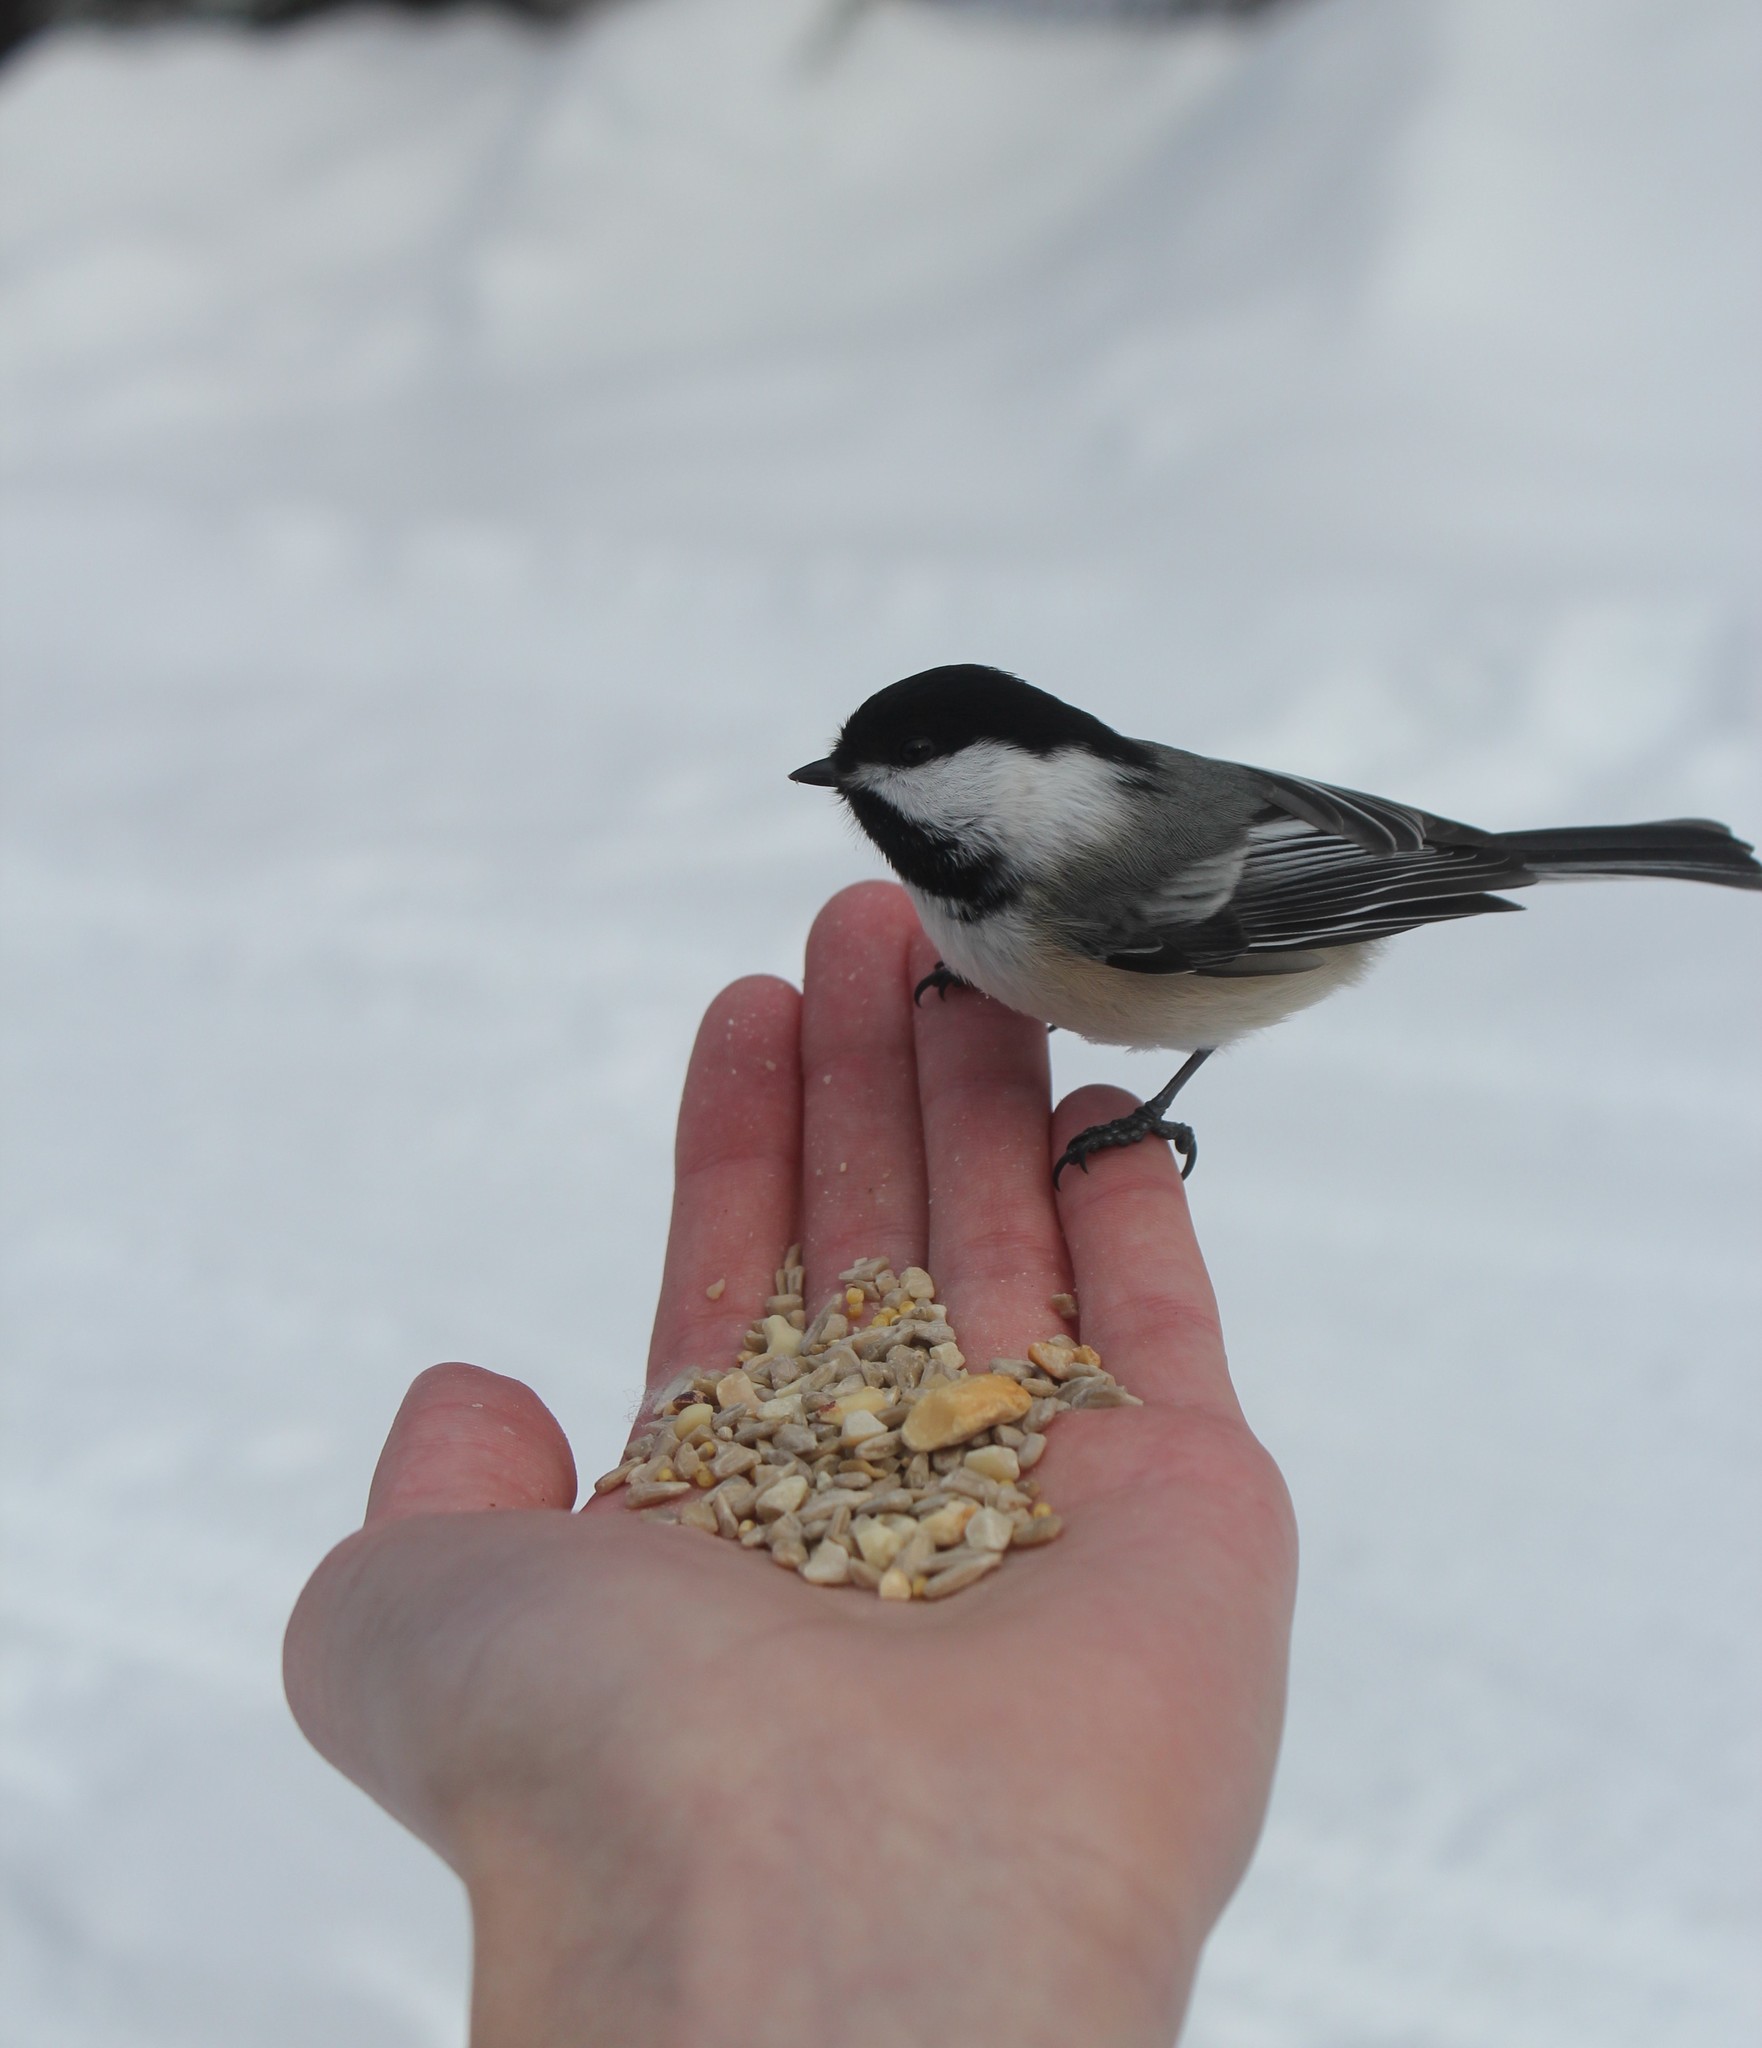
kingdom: Animalia
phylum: Chordata
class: Aves
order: Passeriformes
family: Paridae
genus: Poecile
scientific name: Poecile atricapillus
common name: Black-capped chickadee
